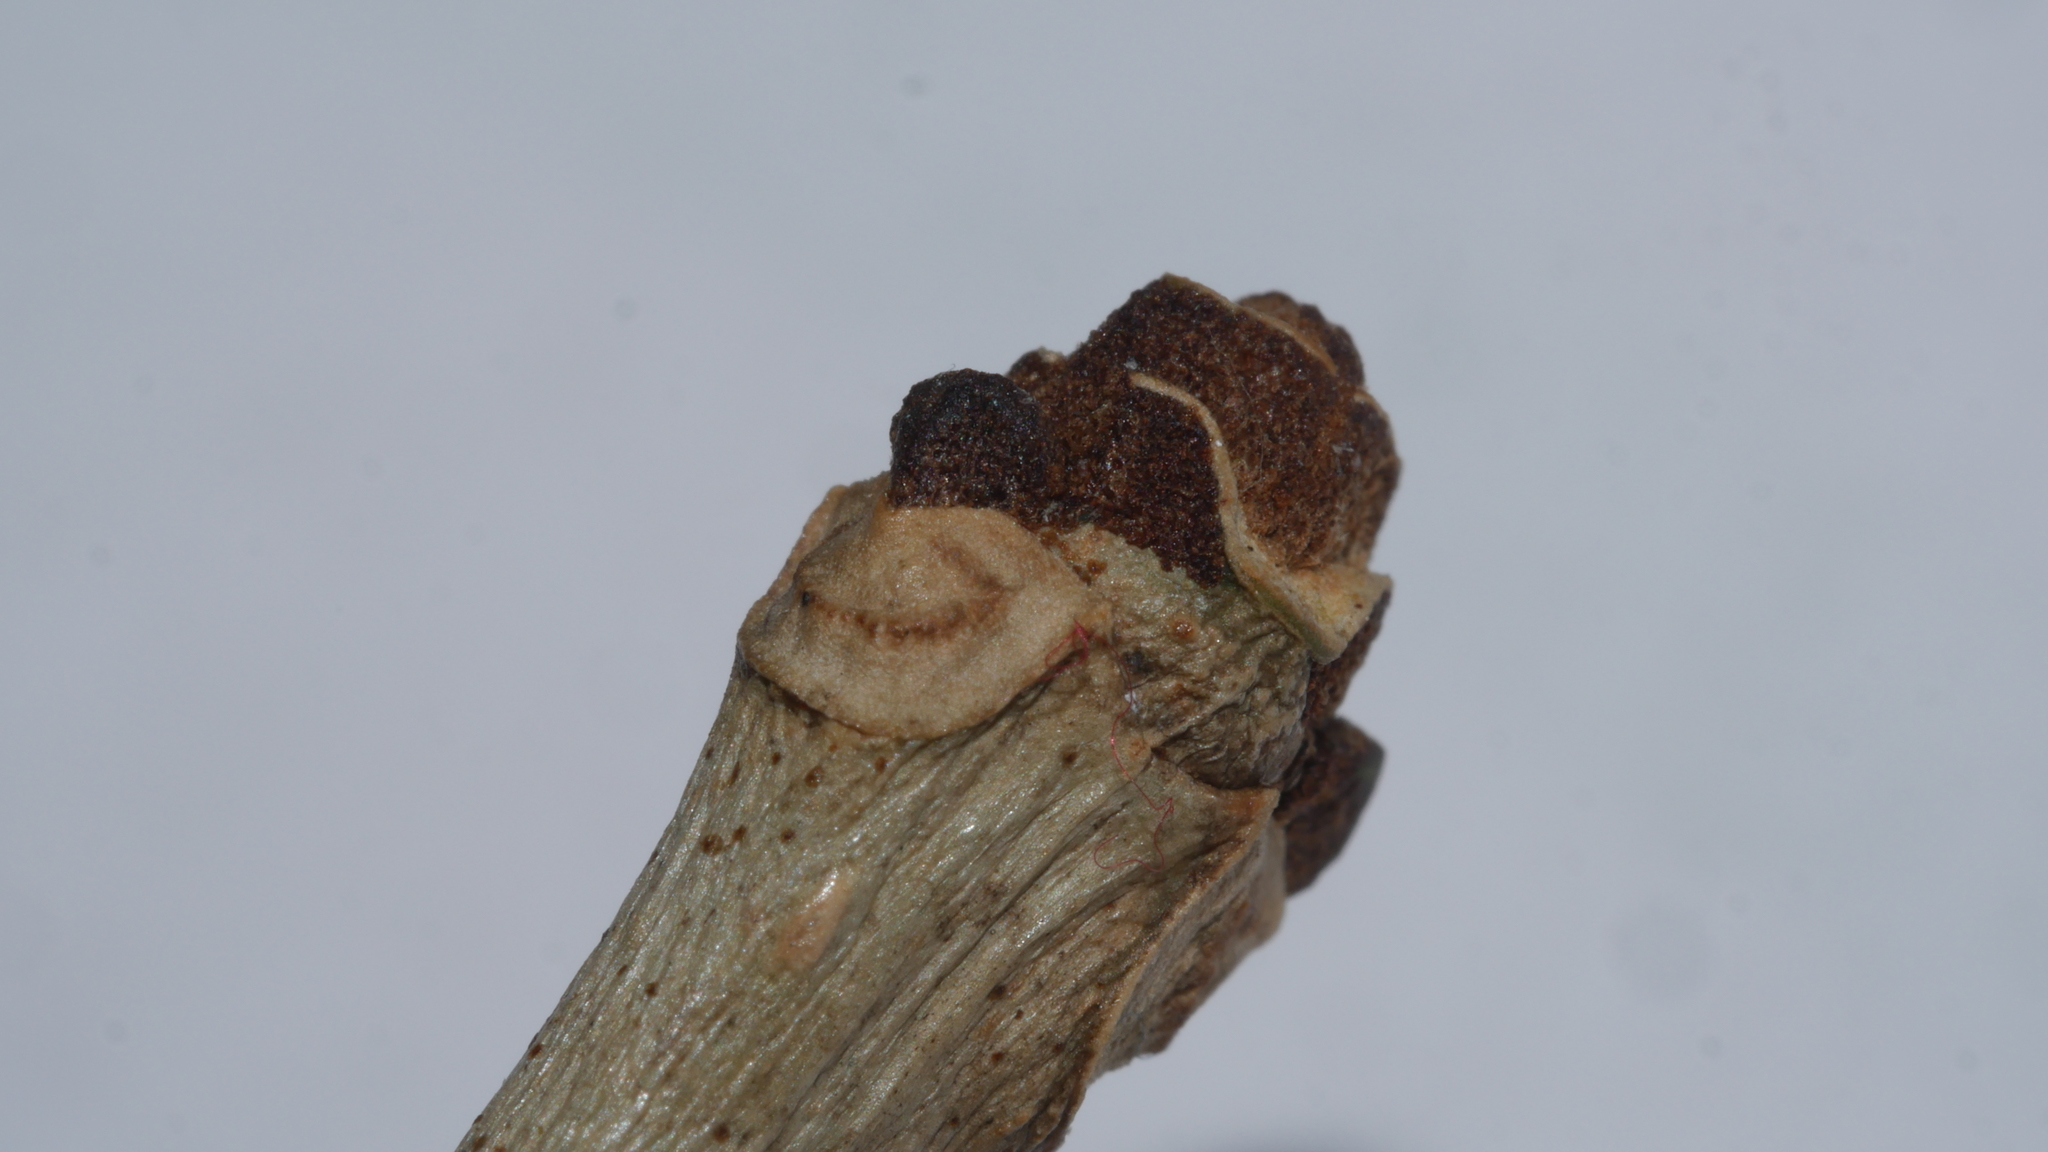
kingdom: Plantae
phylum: Tracheophyta
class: Magnoliopsida
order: Lamiales
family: Oleaceae
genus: Fraxinus
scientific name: Fraxinus americana
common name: White ash
